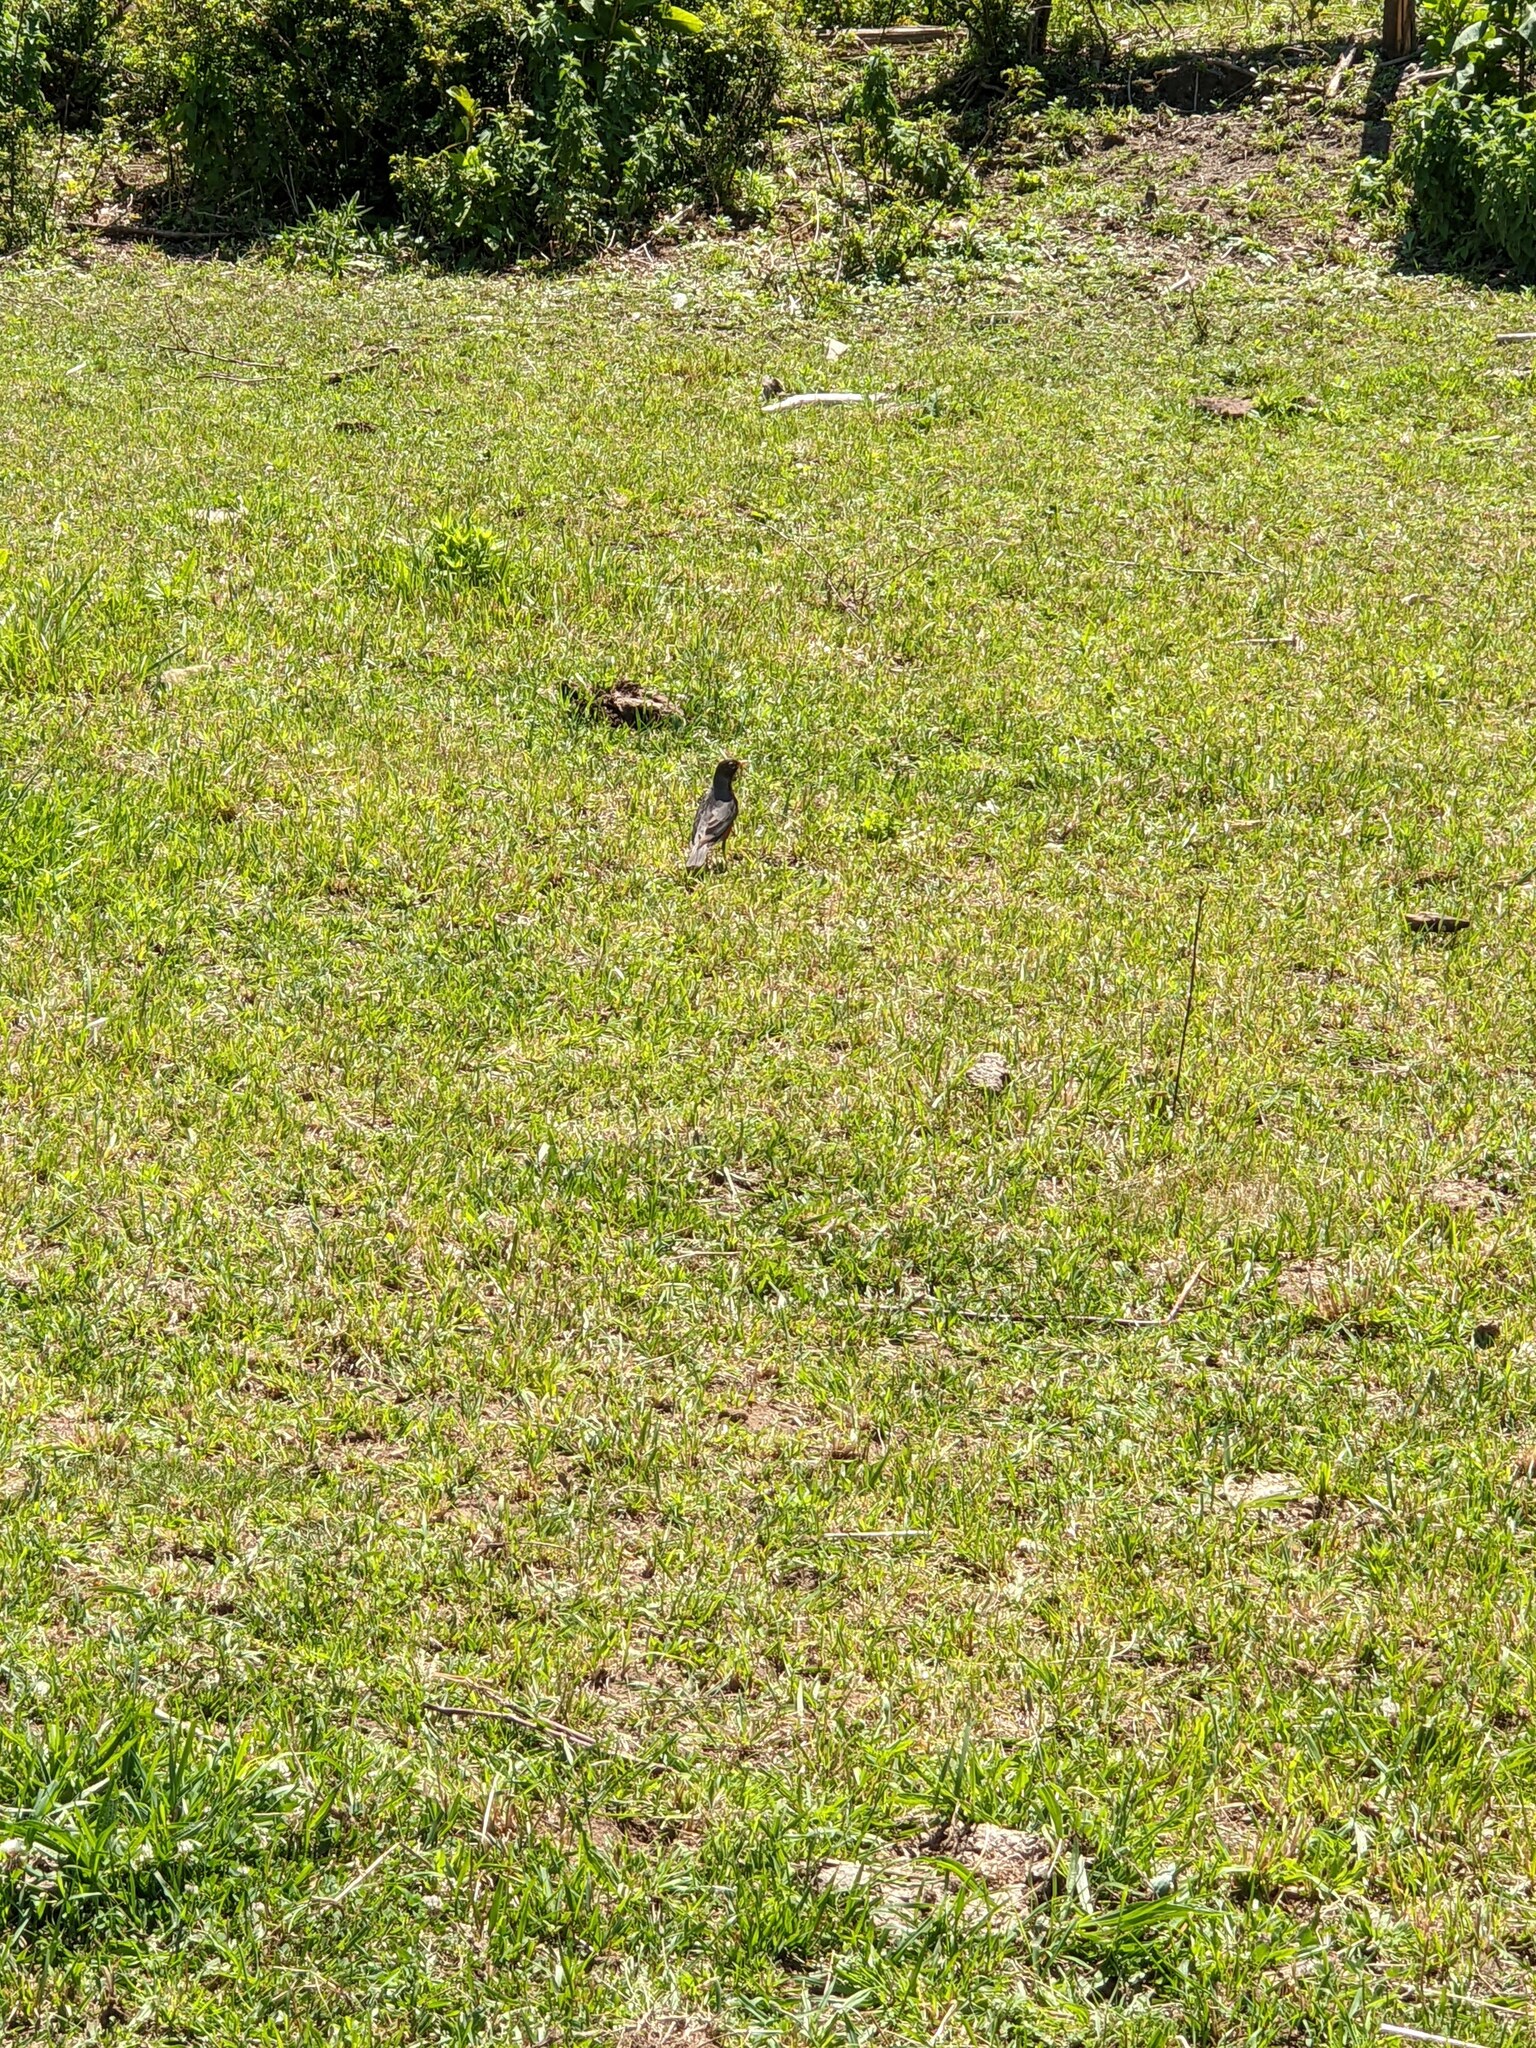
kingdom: Animalia
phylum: Chordata
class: Aves
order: Passeriformes
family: Turdidae
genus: Turdus
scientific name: Turdus migratorius
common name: American robin
